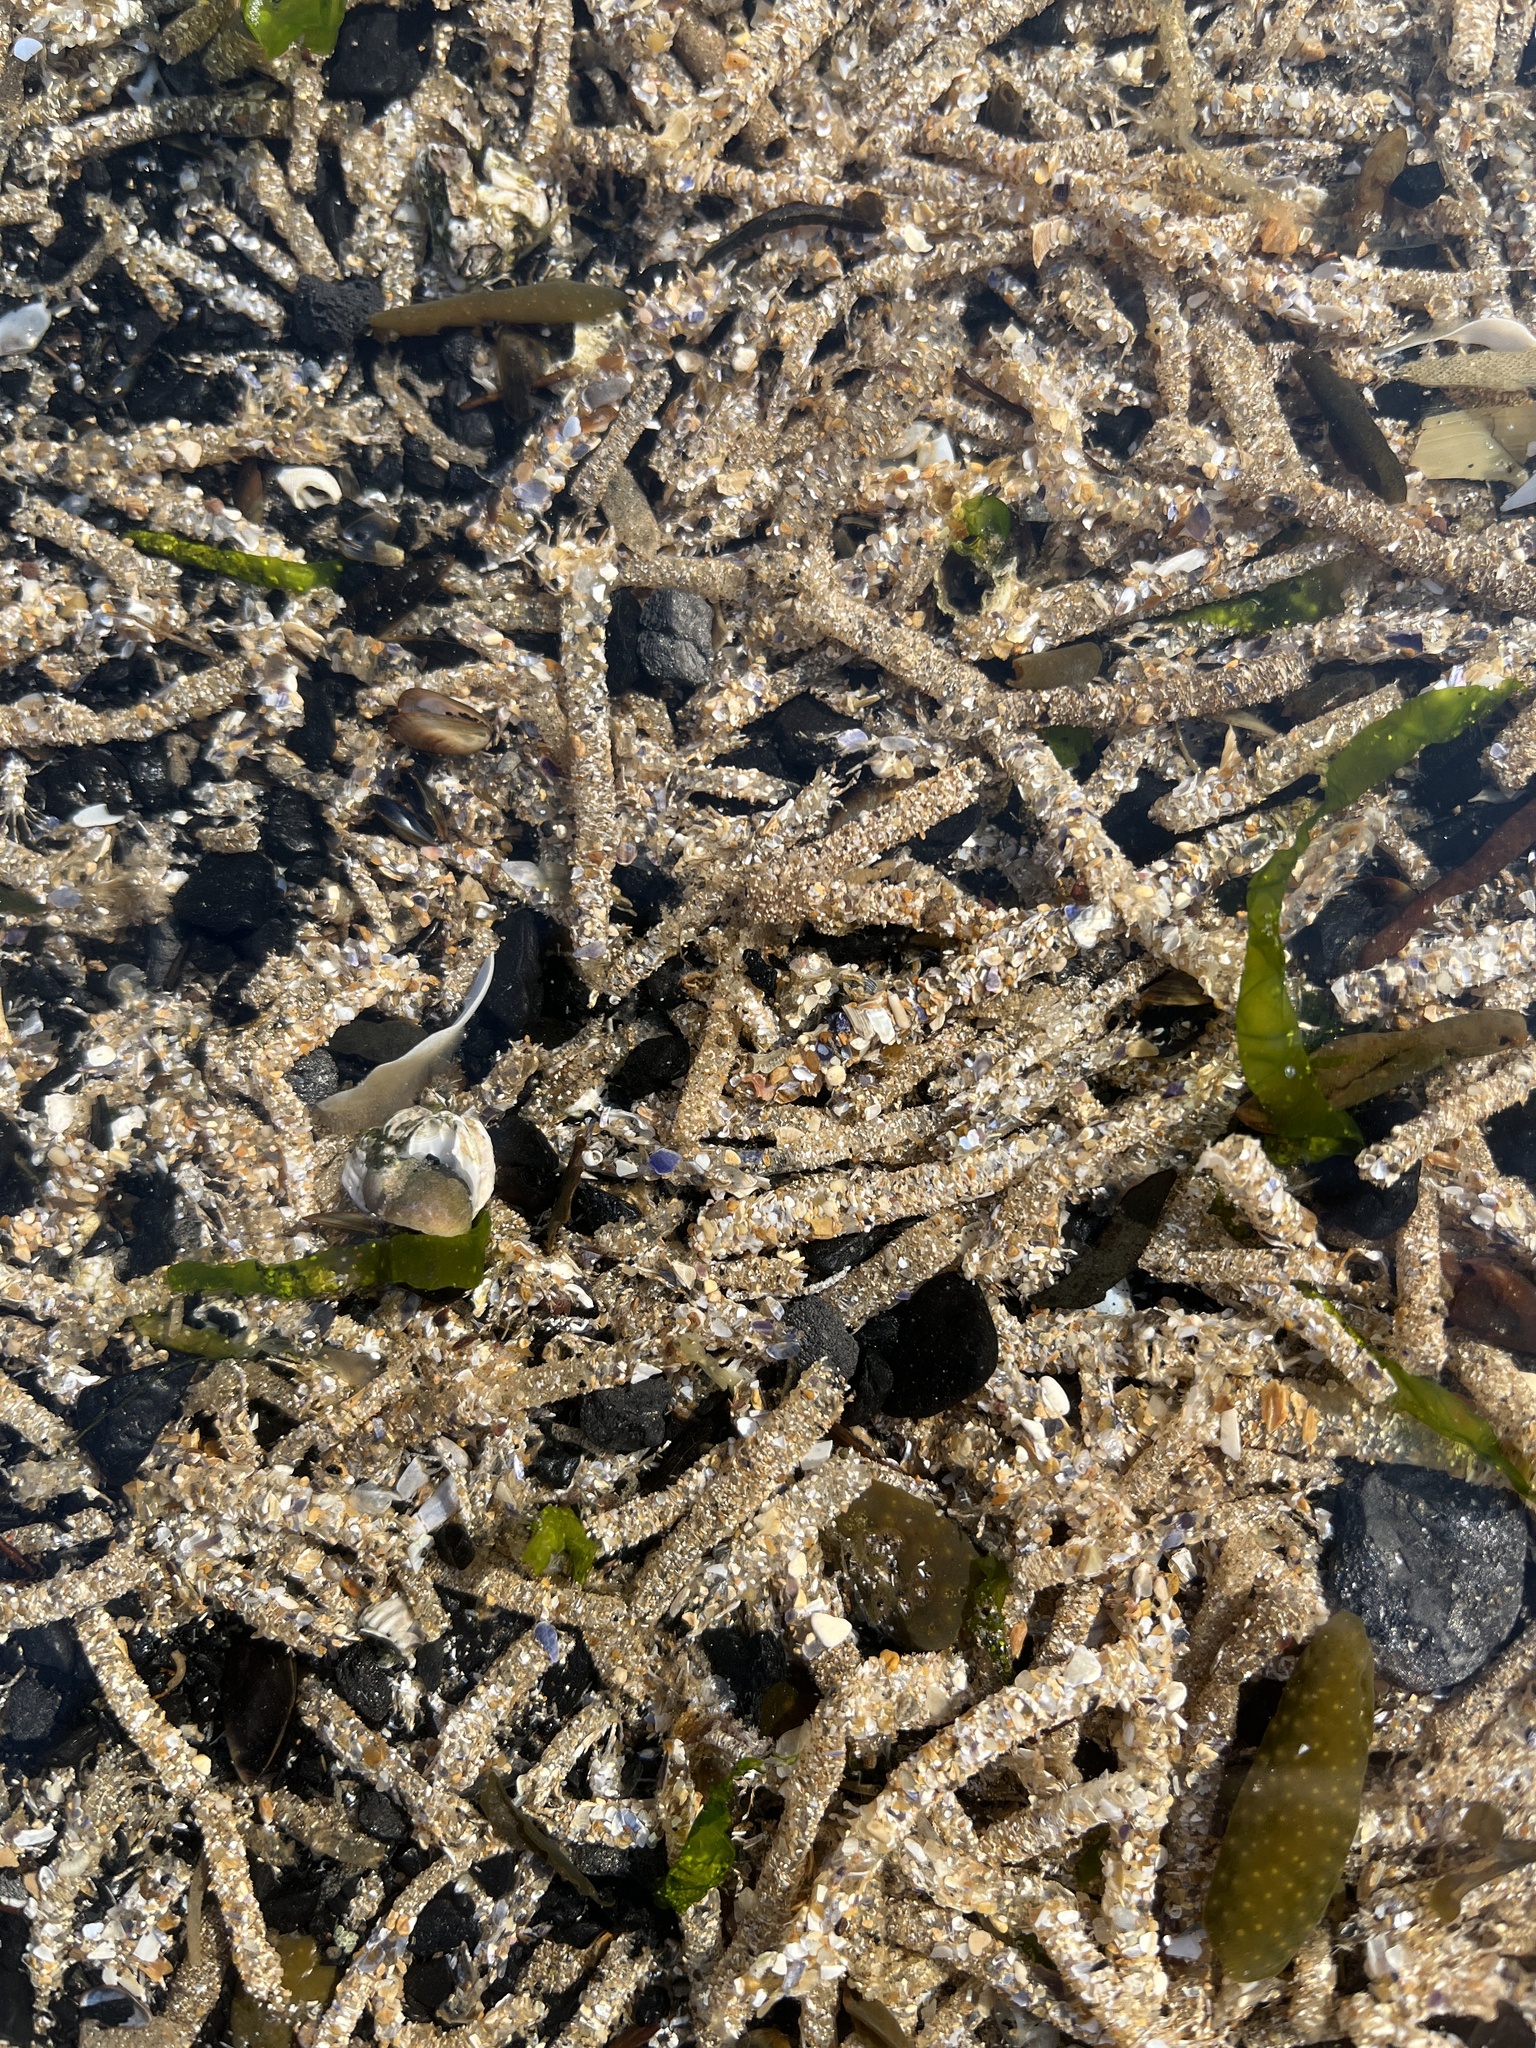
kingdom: Animalia
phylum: Annelida
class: Polychaeta
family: Terebellidae
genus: Lanice
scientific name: Lanice conchilega
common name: Sand mason
